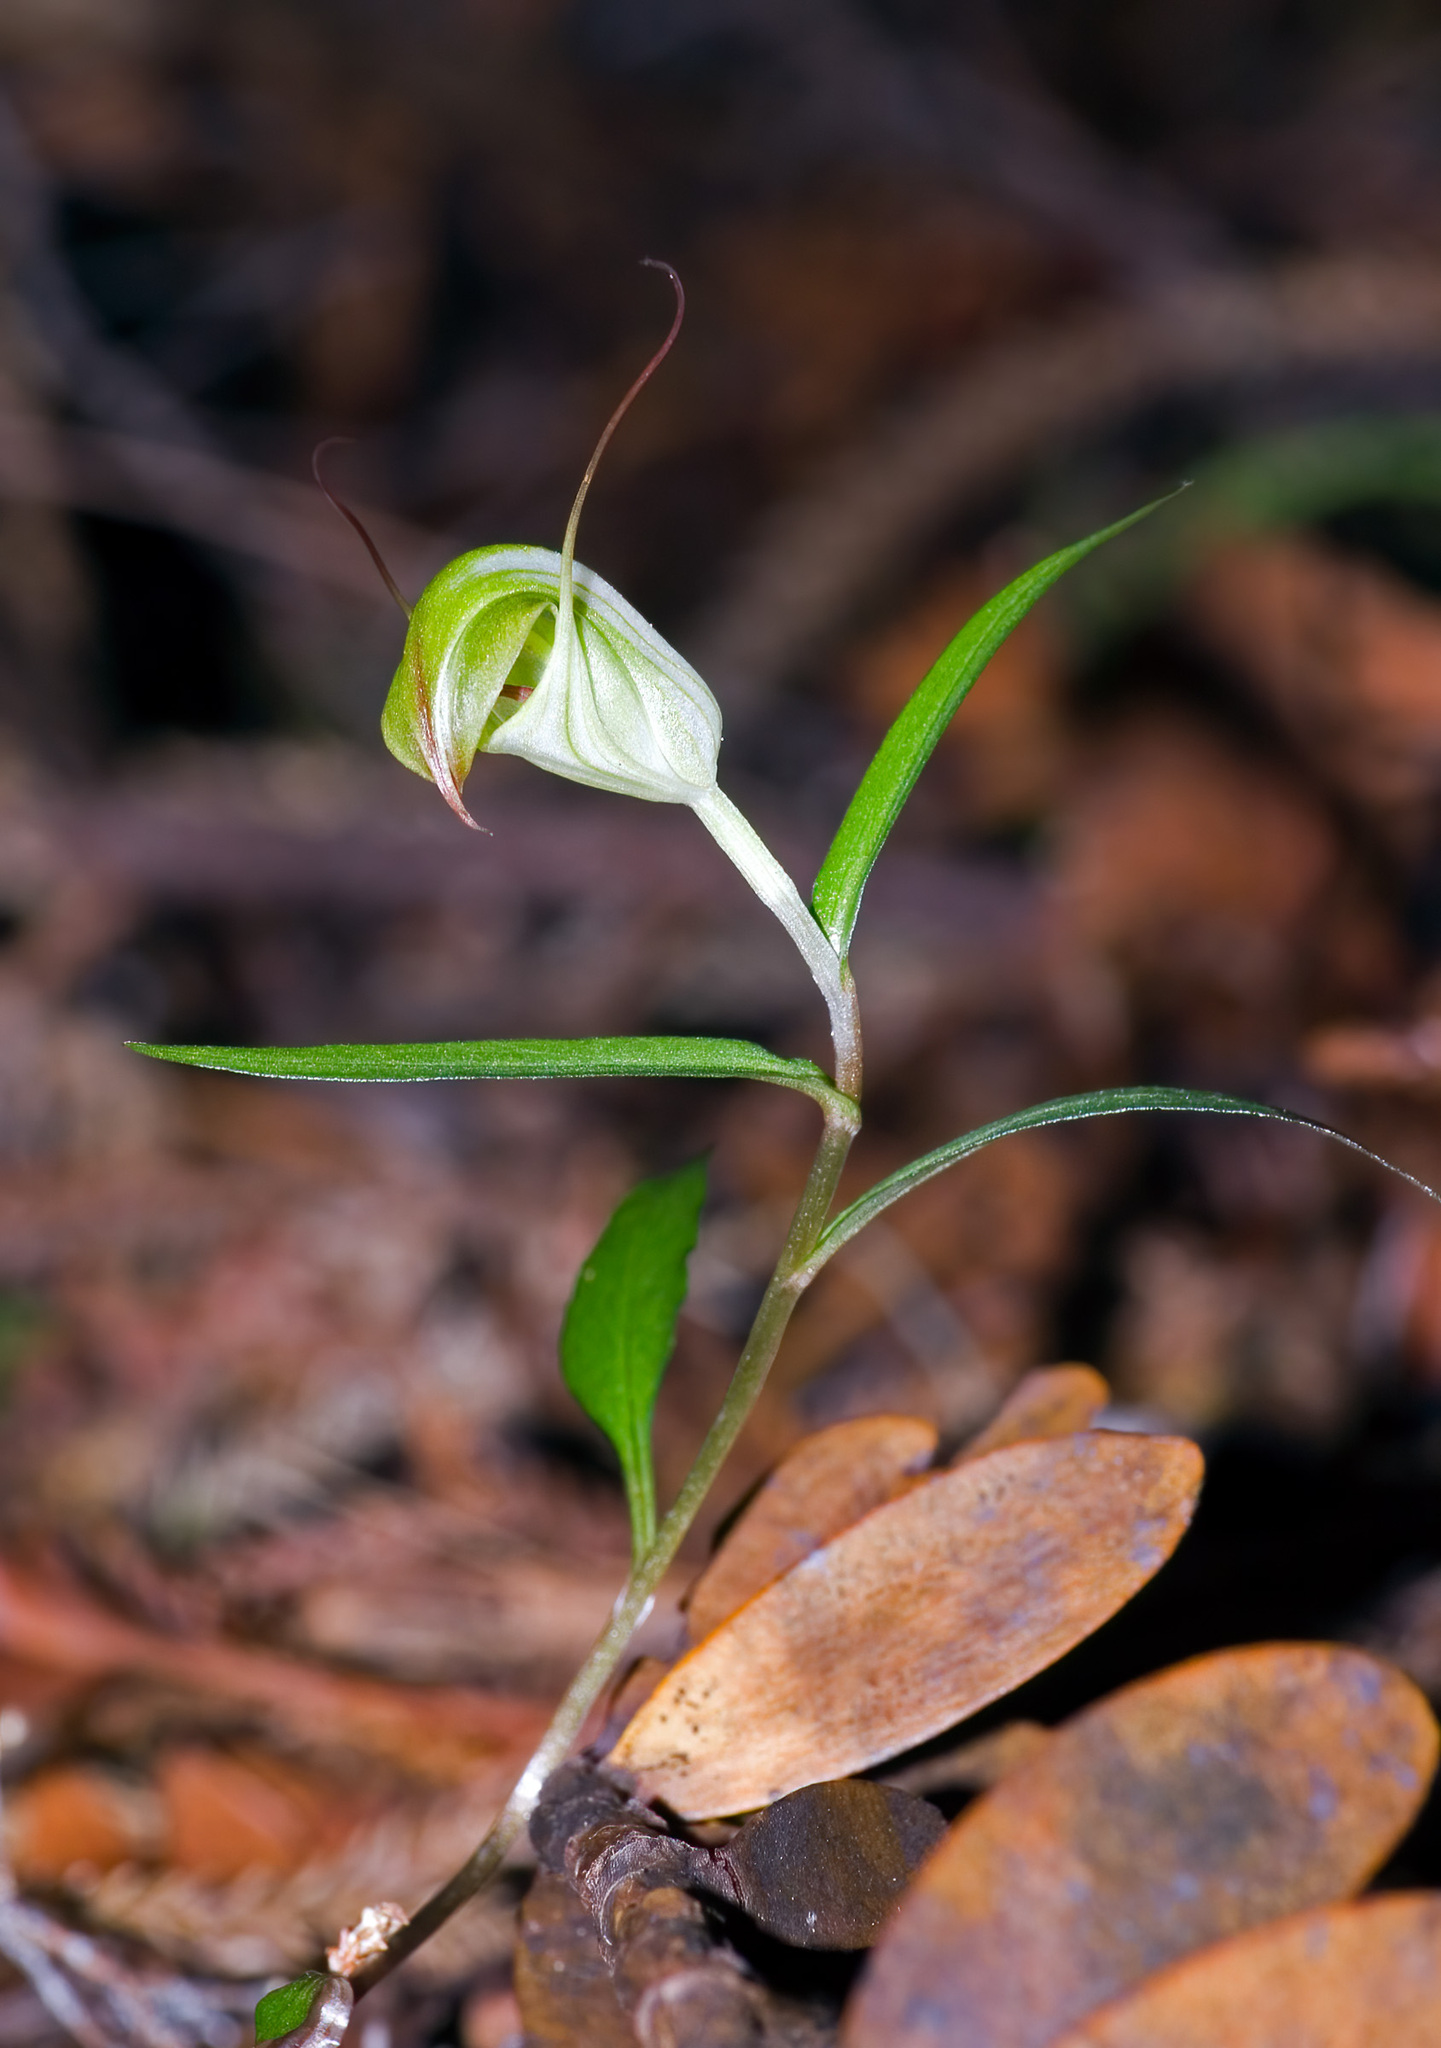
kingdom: Plantae
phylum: Tracheophyta
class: Liliopsida
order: Asparagales
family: Orchidaceae
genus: Pterostylis
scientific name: Pterostylis brumalis
